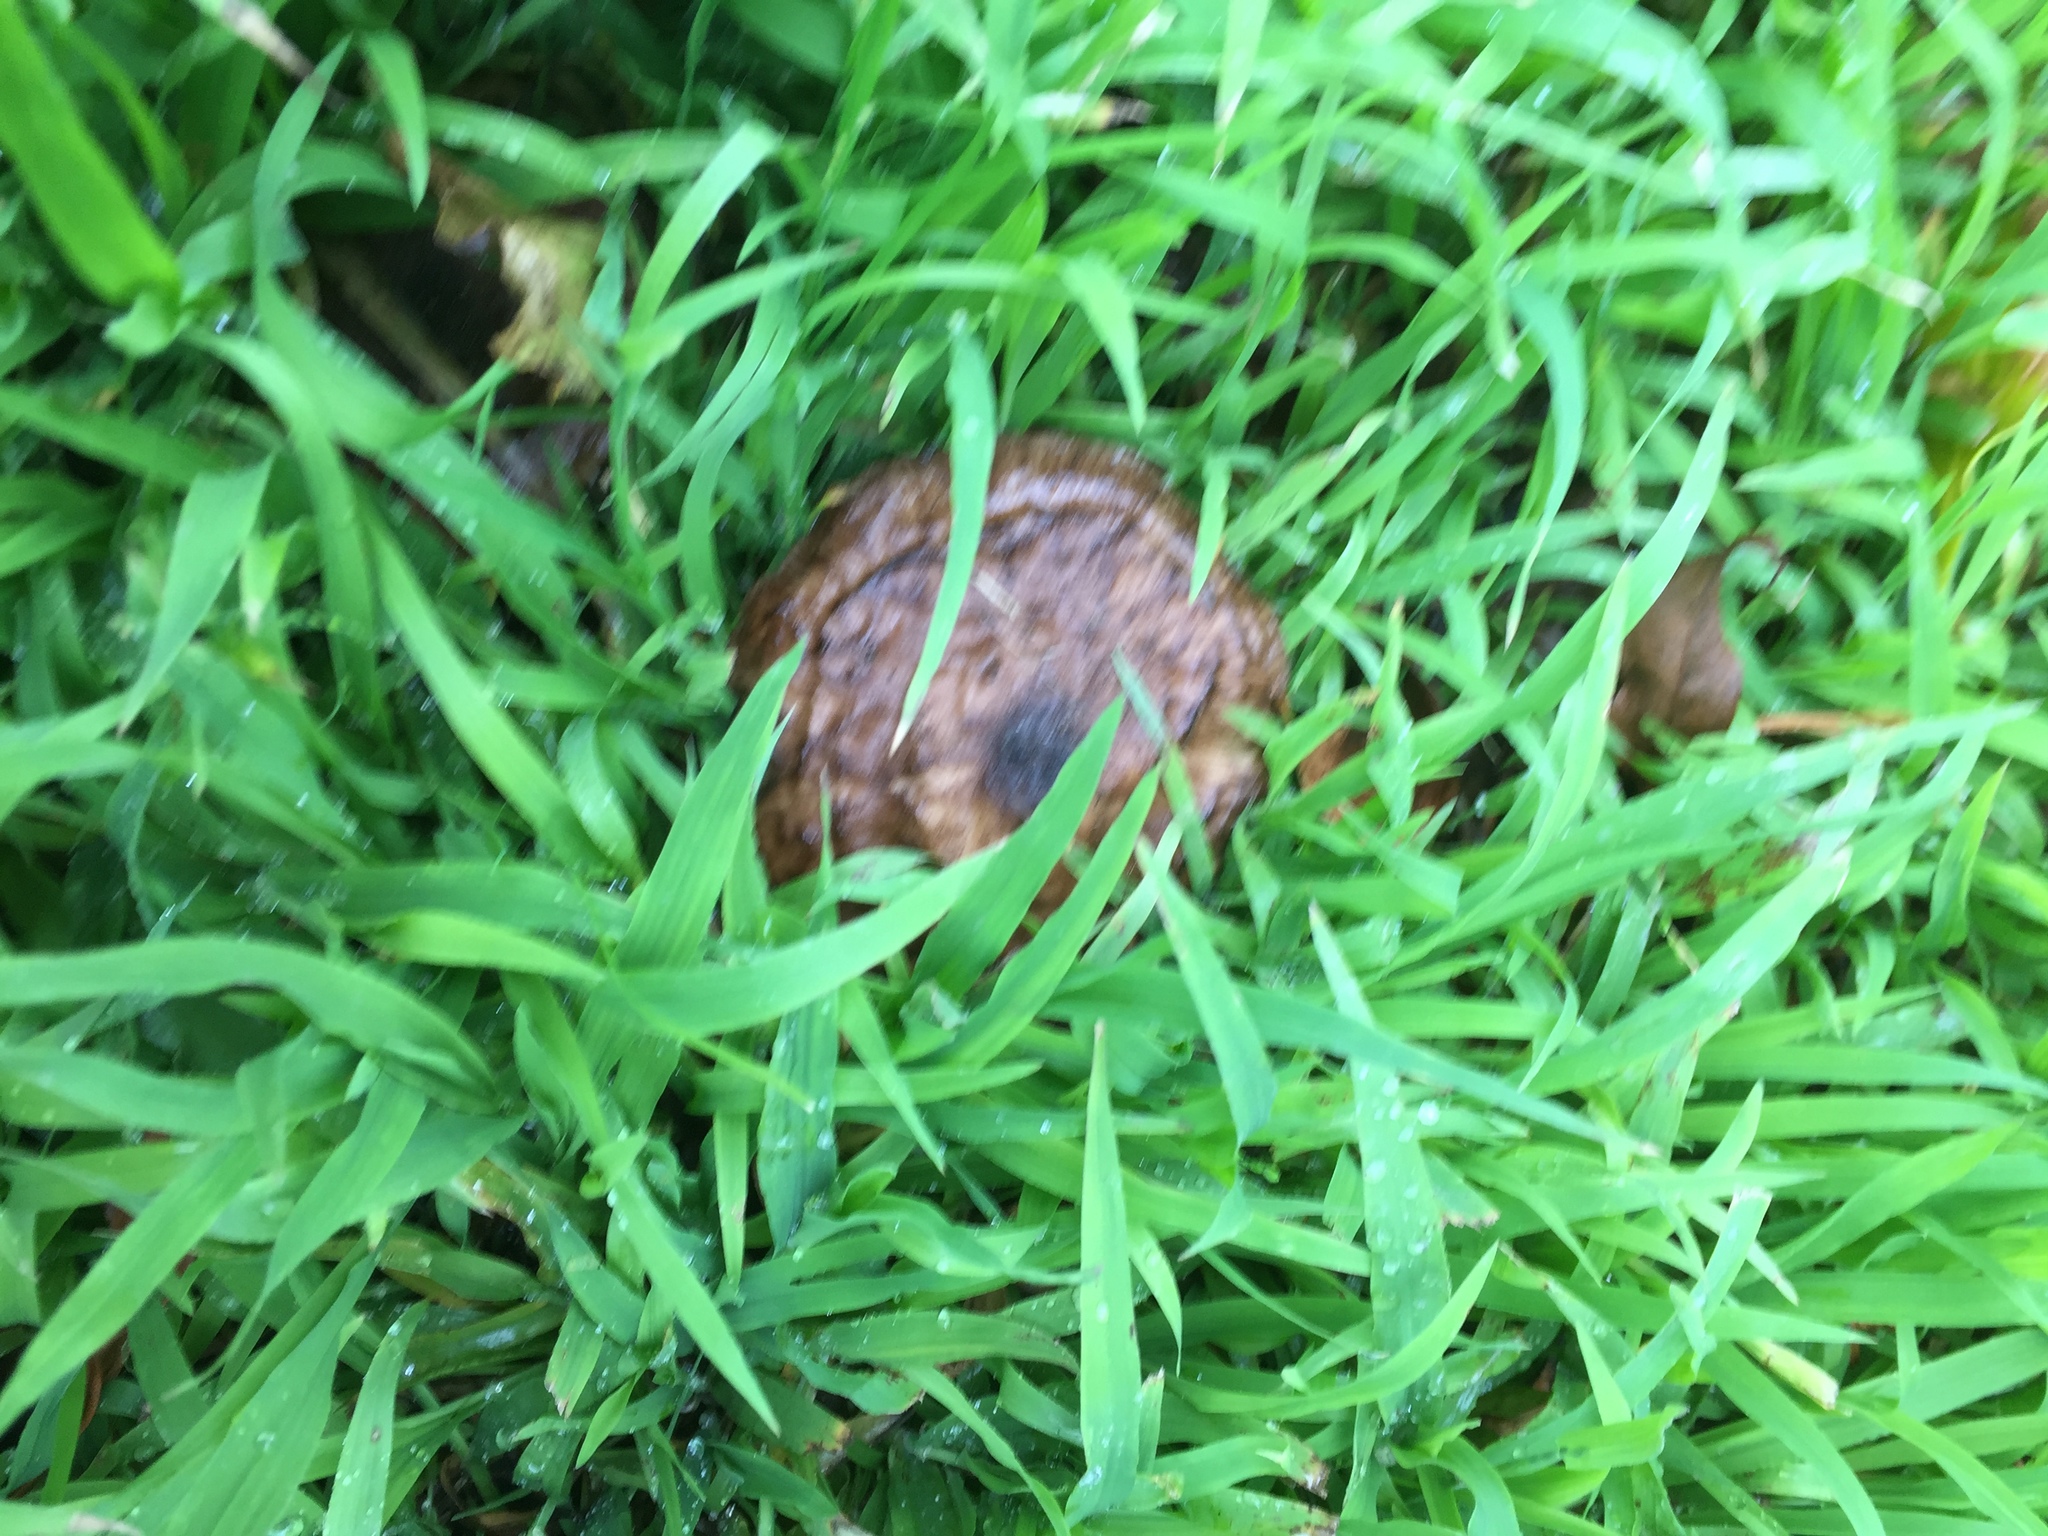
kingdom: Fungi
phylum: Basidiomycota
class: Agaricomycetes
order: Agaricales
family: Pluteaceae
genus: Pluteus
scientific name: Pluteus cervinus
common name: Deer shield
